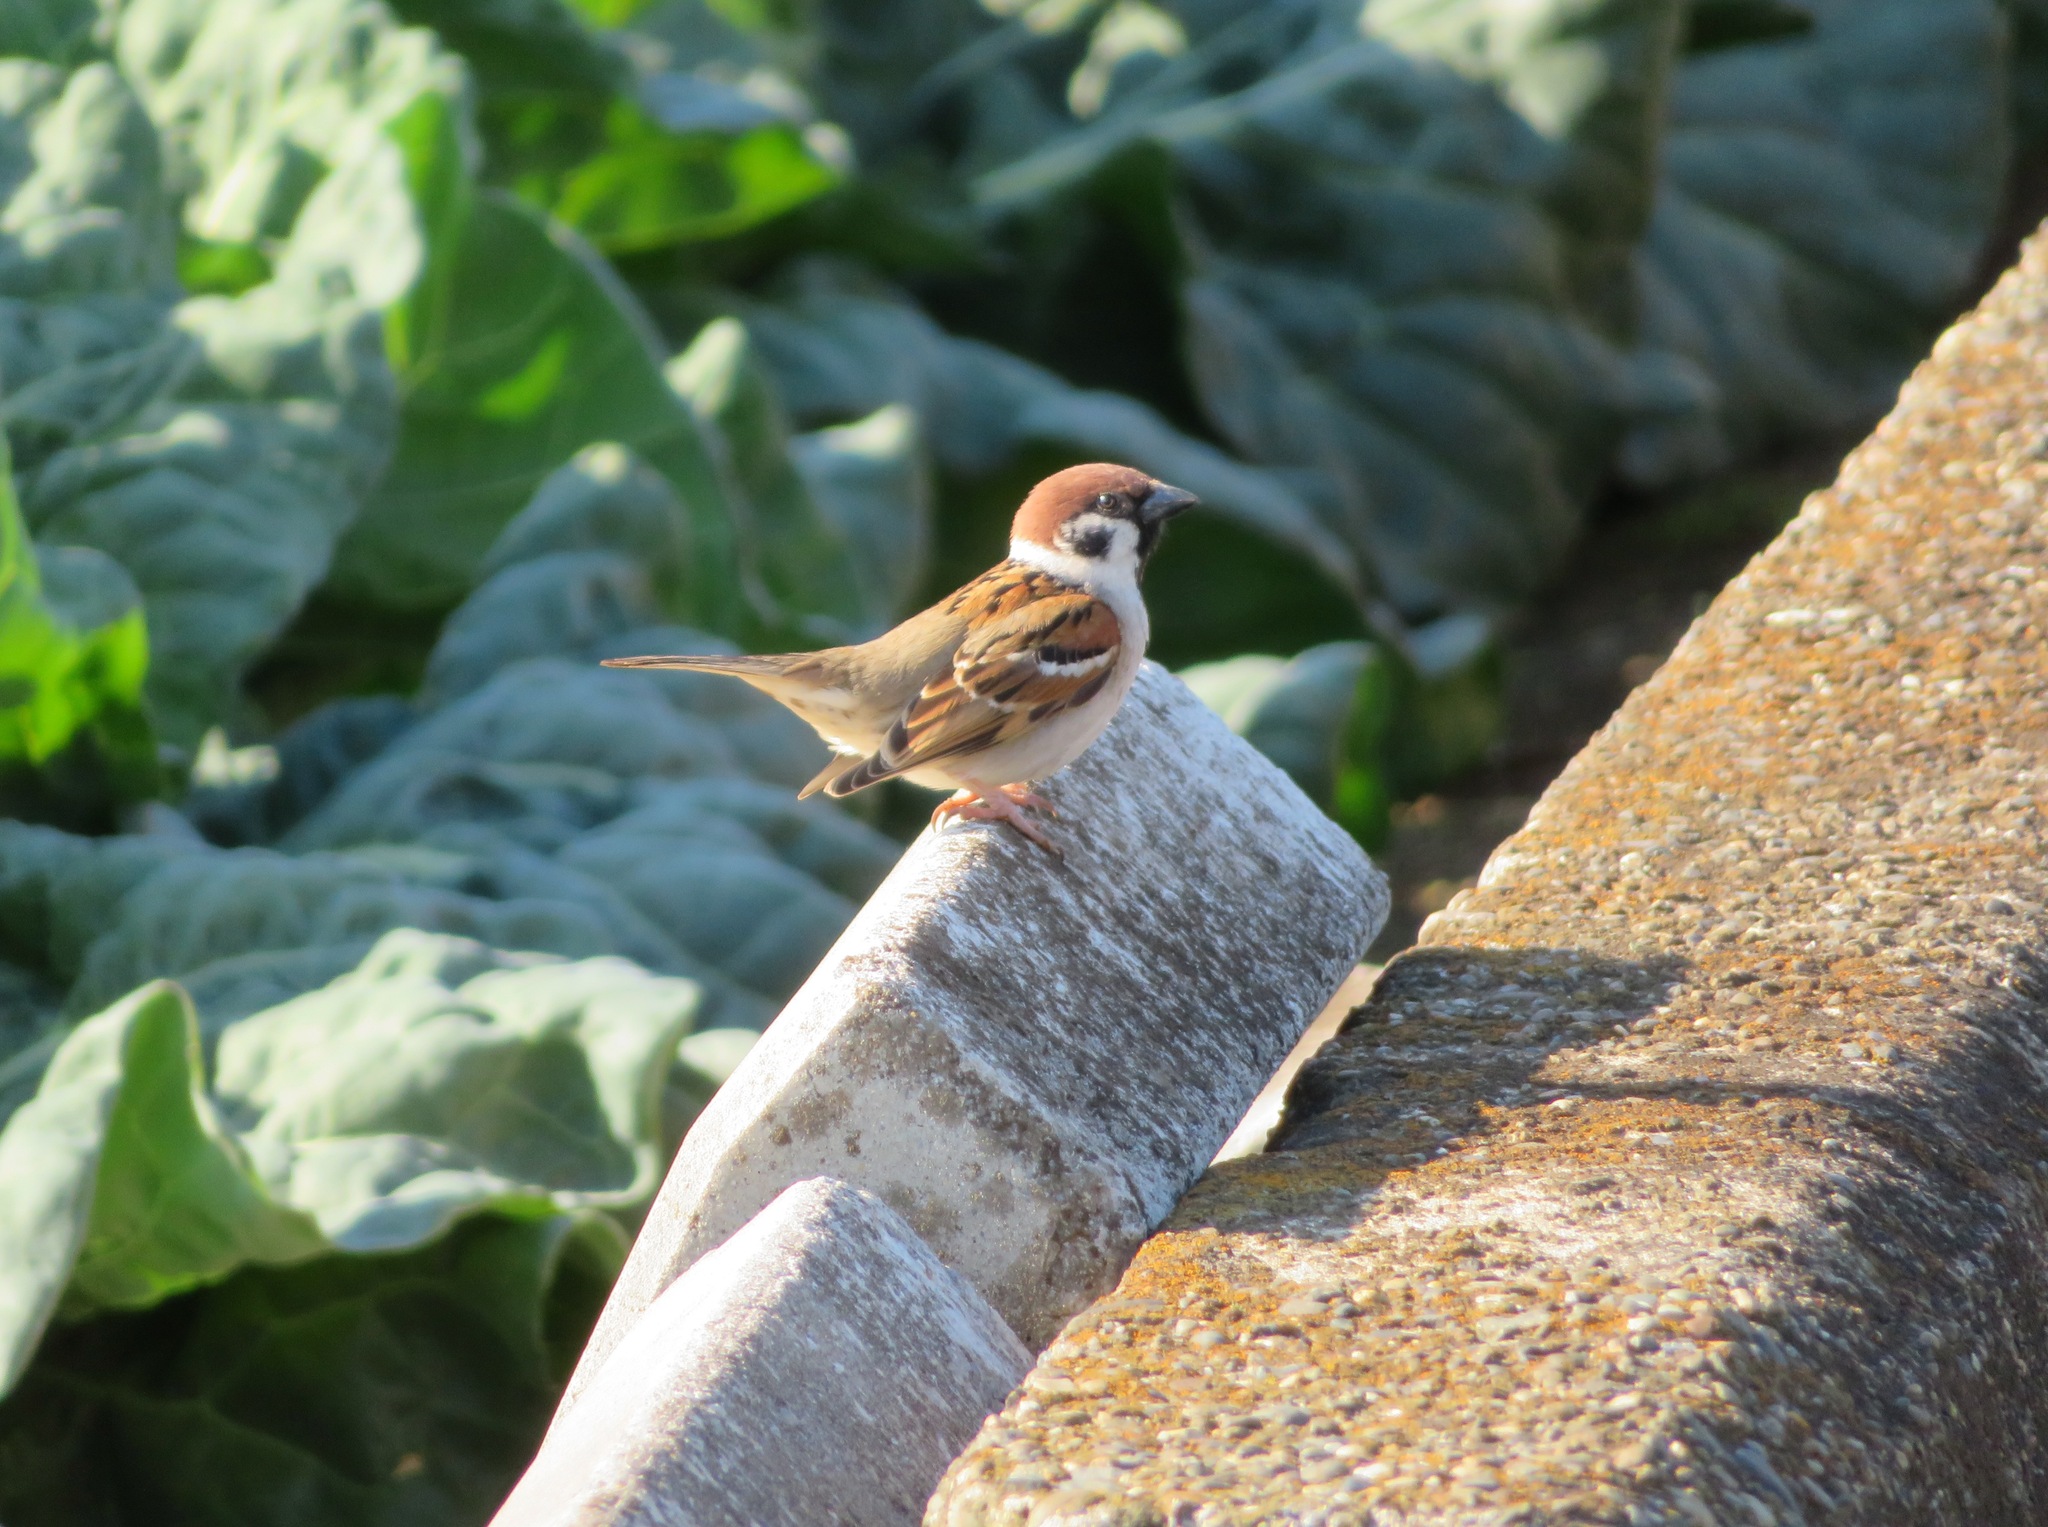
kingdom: Animalia
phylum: Chordata
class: Aves
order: Passeriformes
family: Passeridae
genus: Passer
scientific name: Passer montanus
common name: Eurasian tree sparrow
